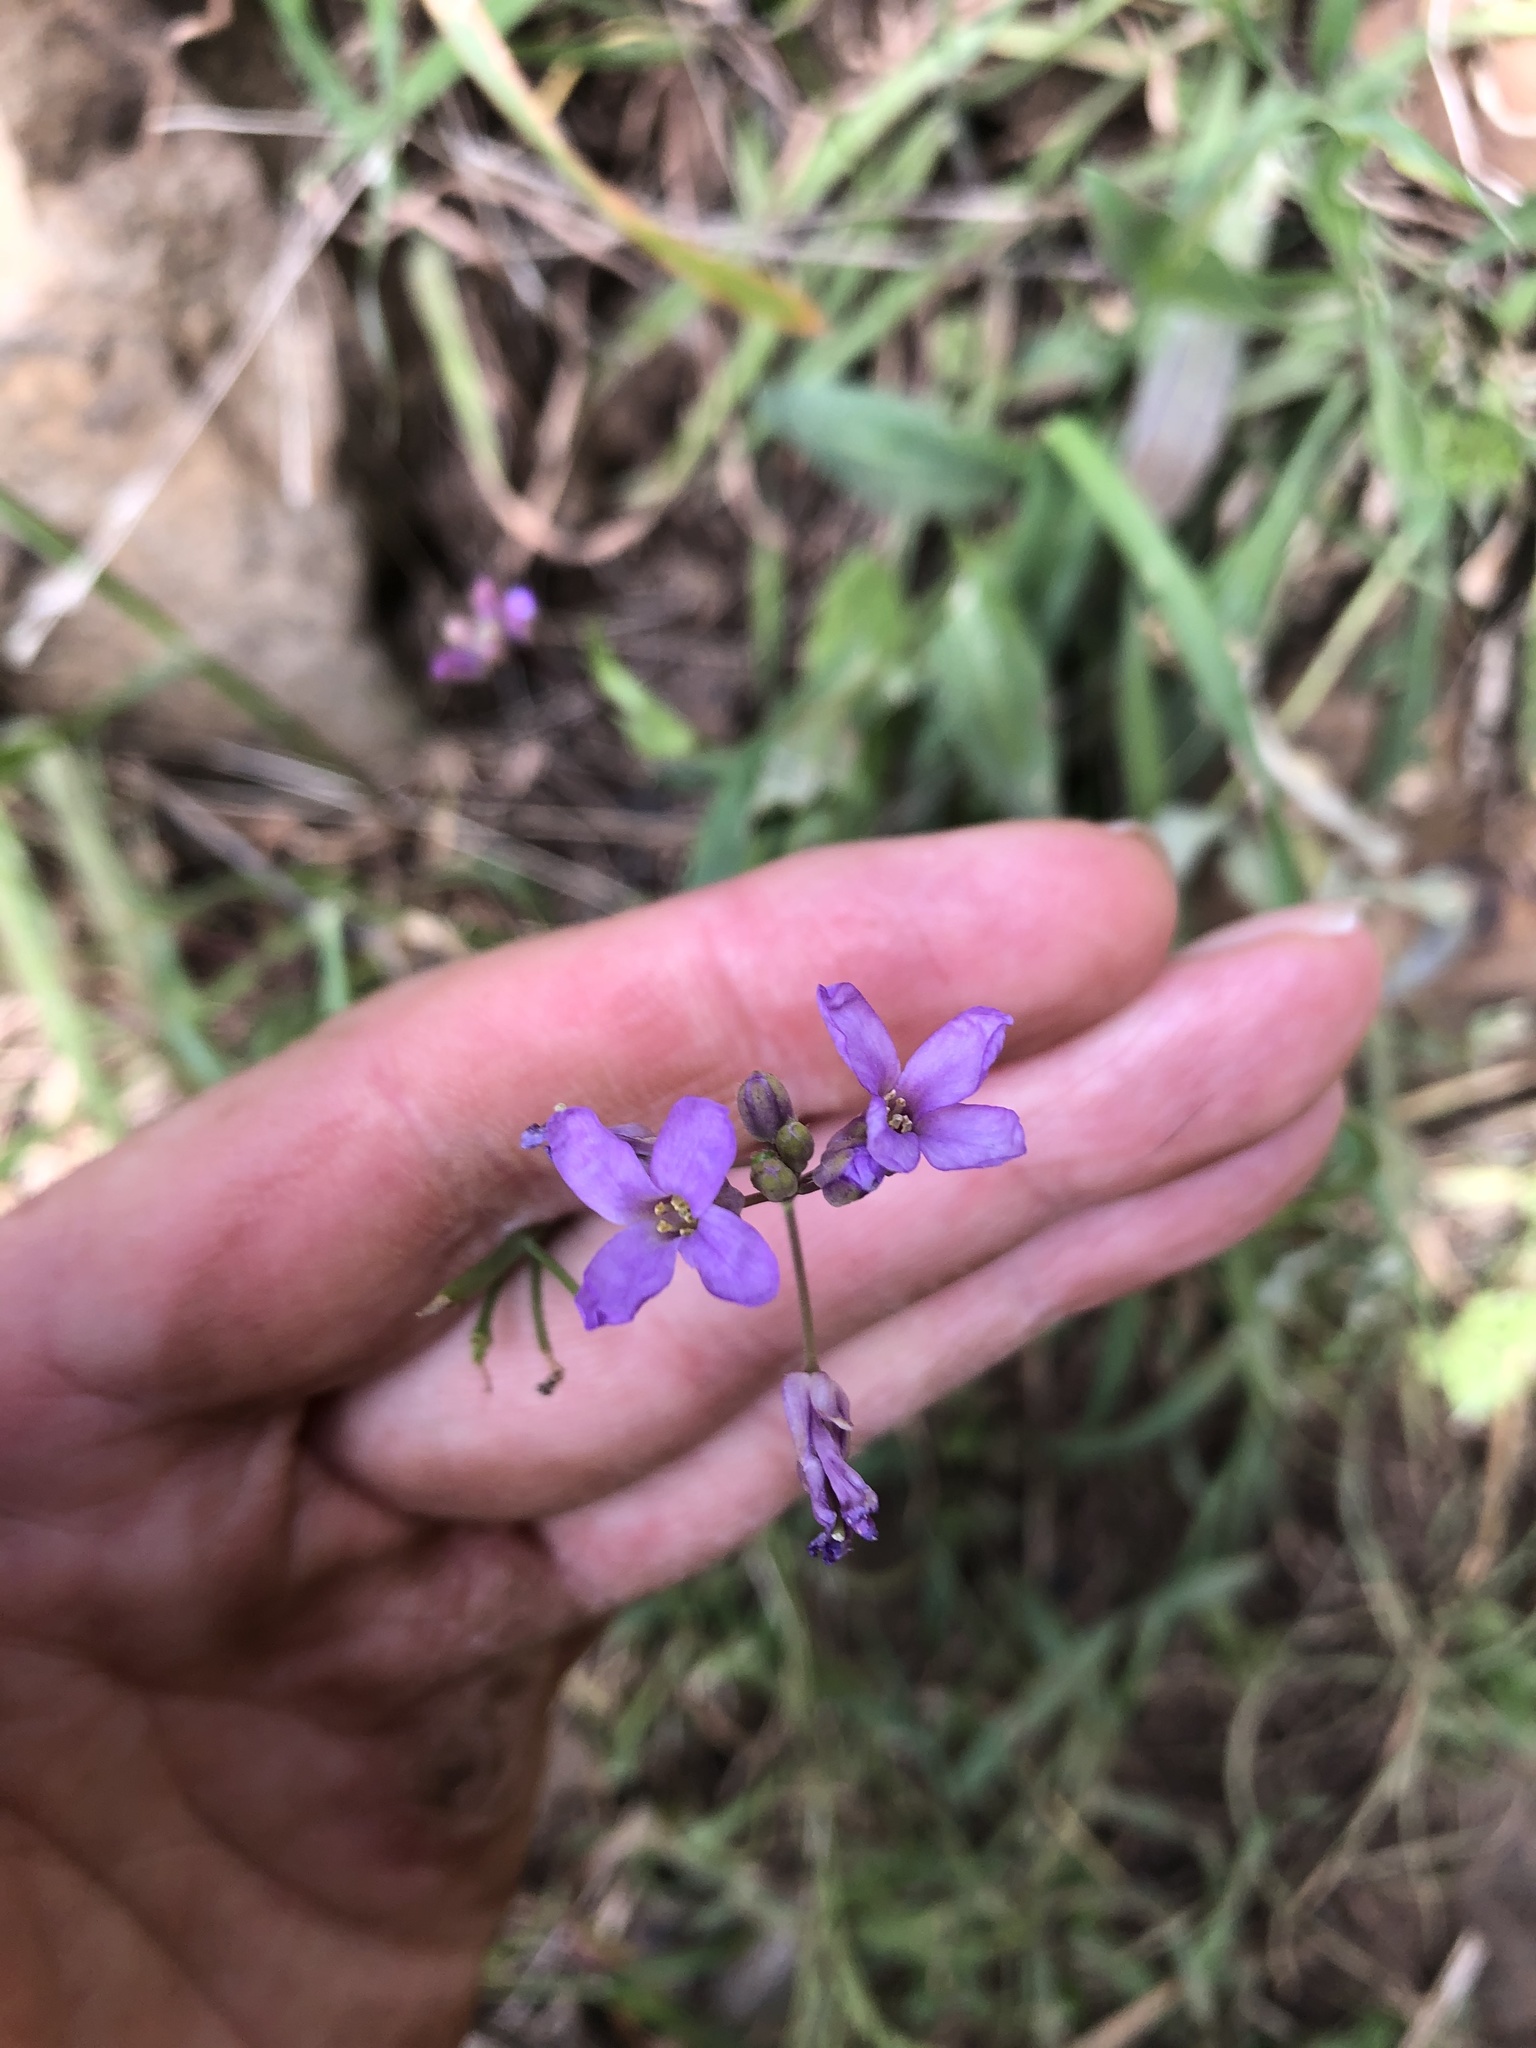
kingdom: Plantae
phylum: Tracheophyta
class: Magnoliopsida
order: Brassicales
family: Brassicaceae
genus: Boechera
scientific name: Boechera breweri
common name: Brewer's rockcress
